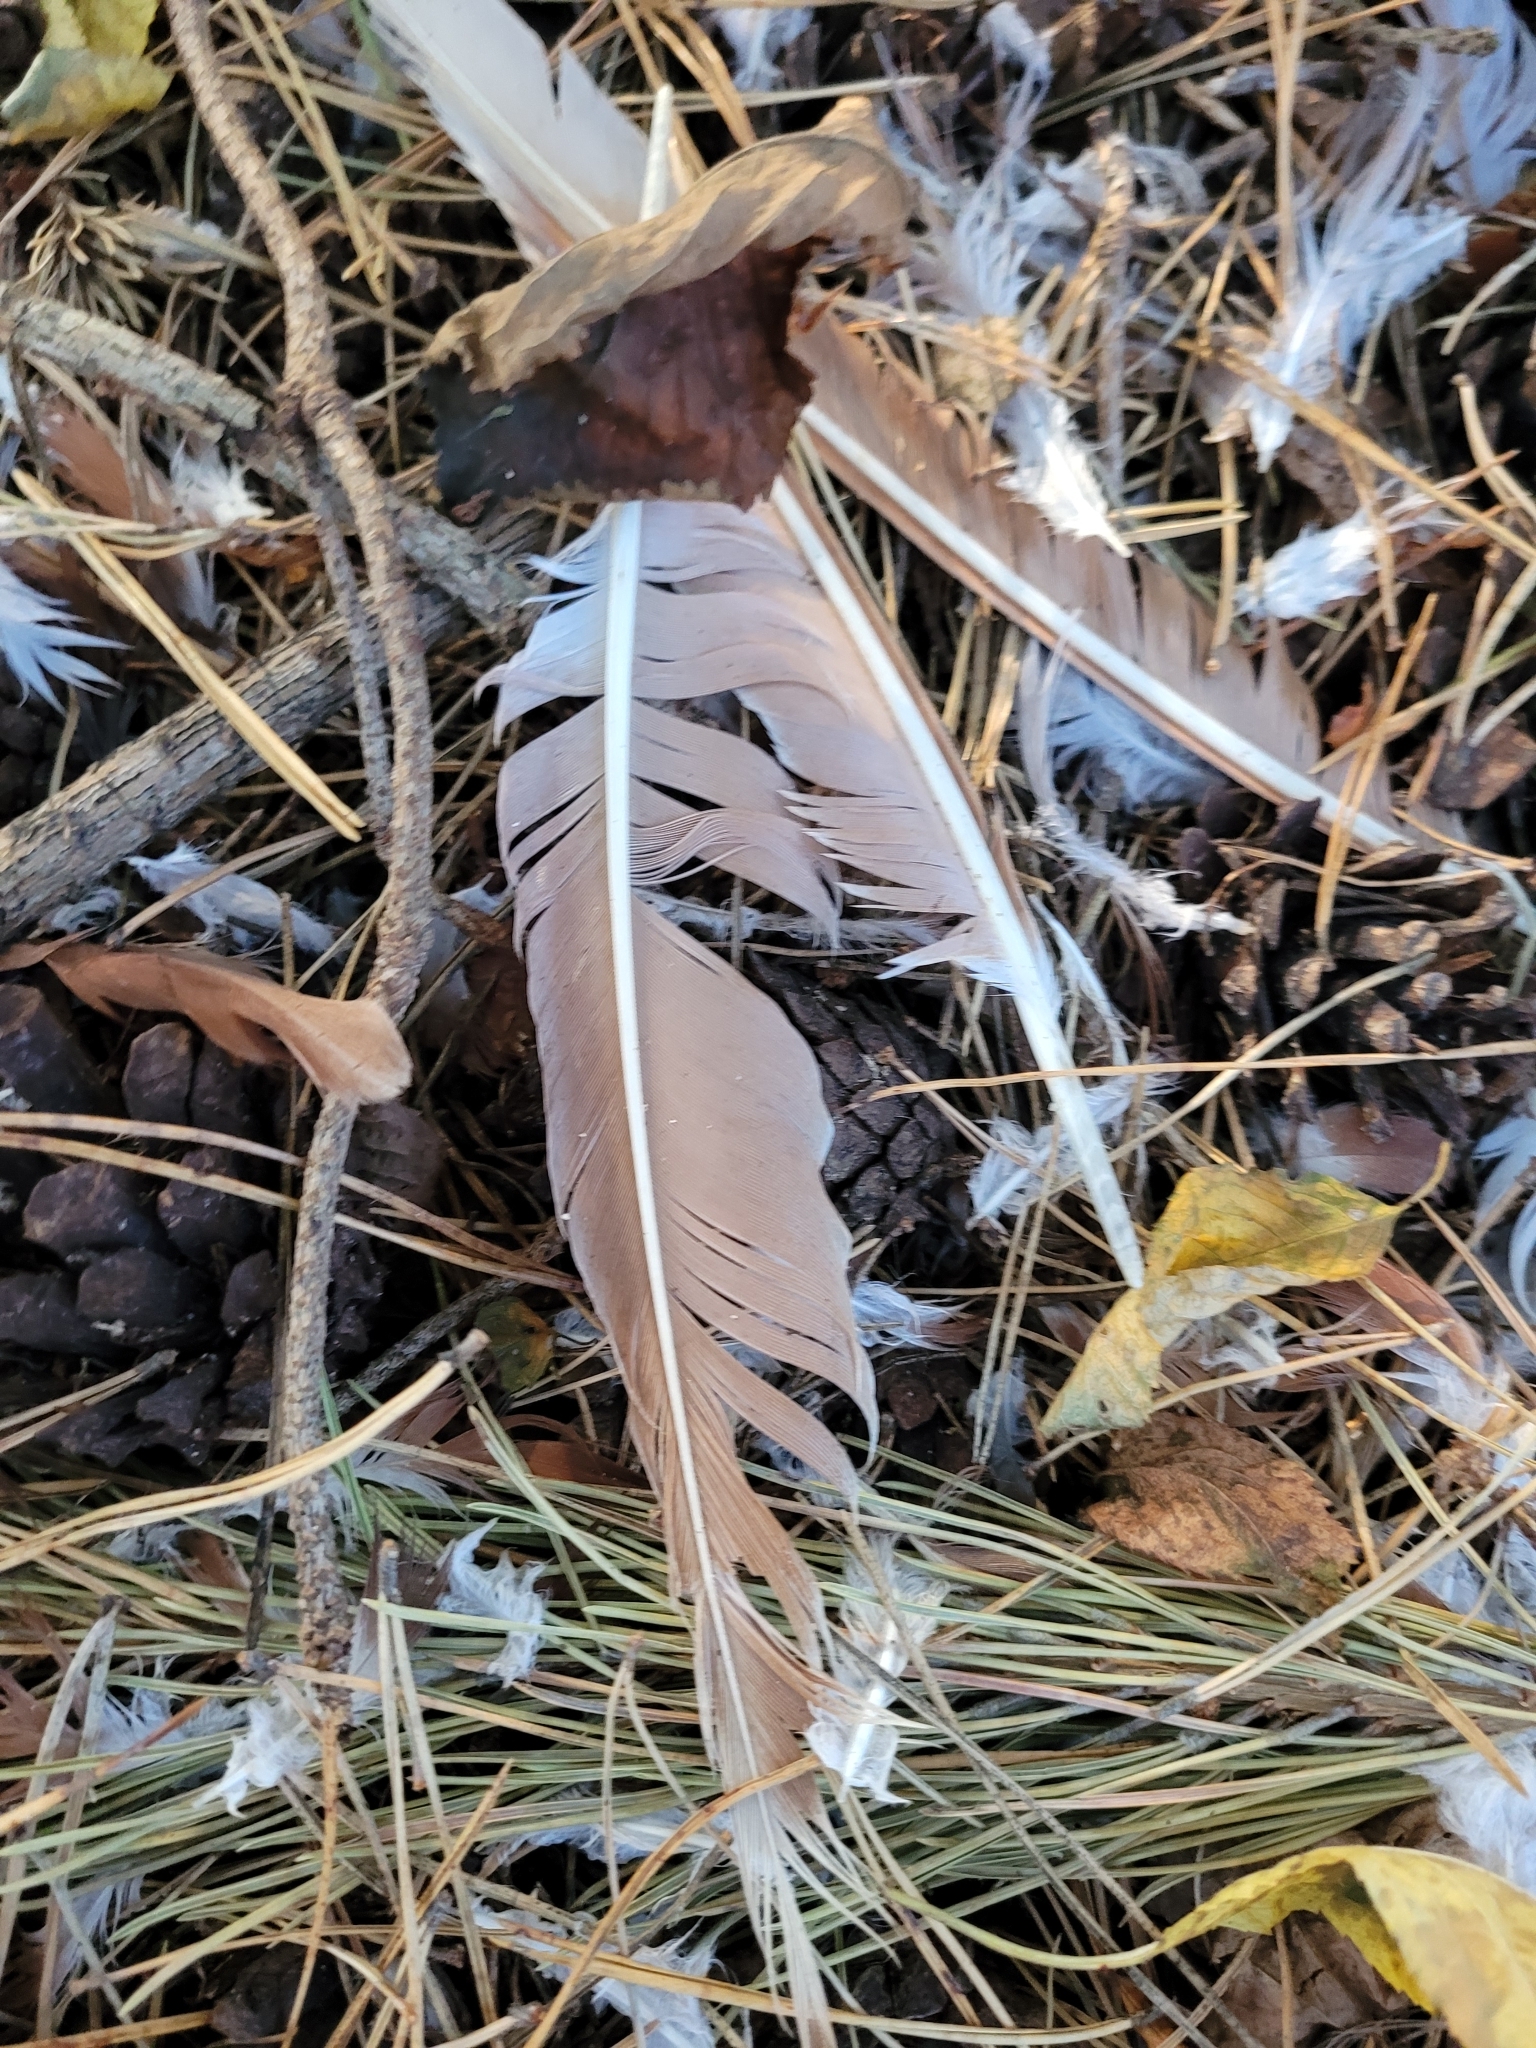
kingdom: Animalia
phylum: Chordata
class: Aves
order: Columbiformes
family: Columbidae
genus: Columba
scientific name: Columba livia
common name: Rock pigeon
